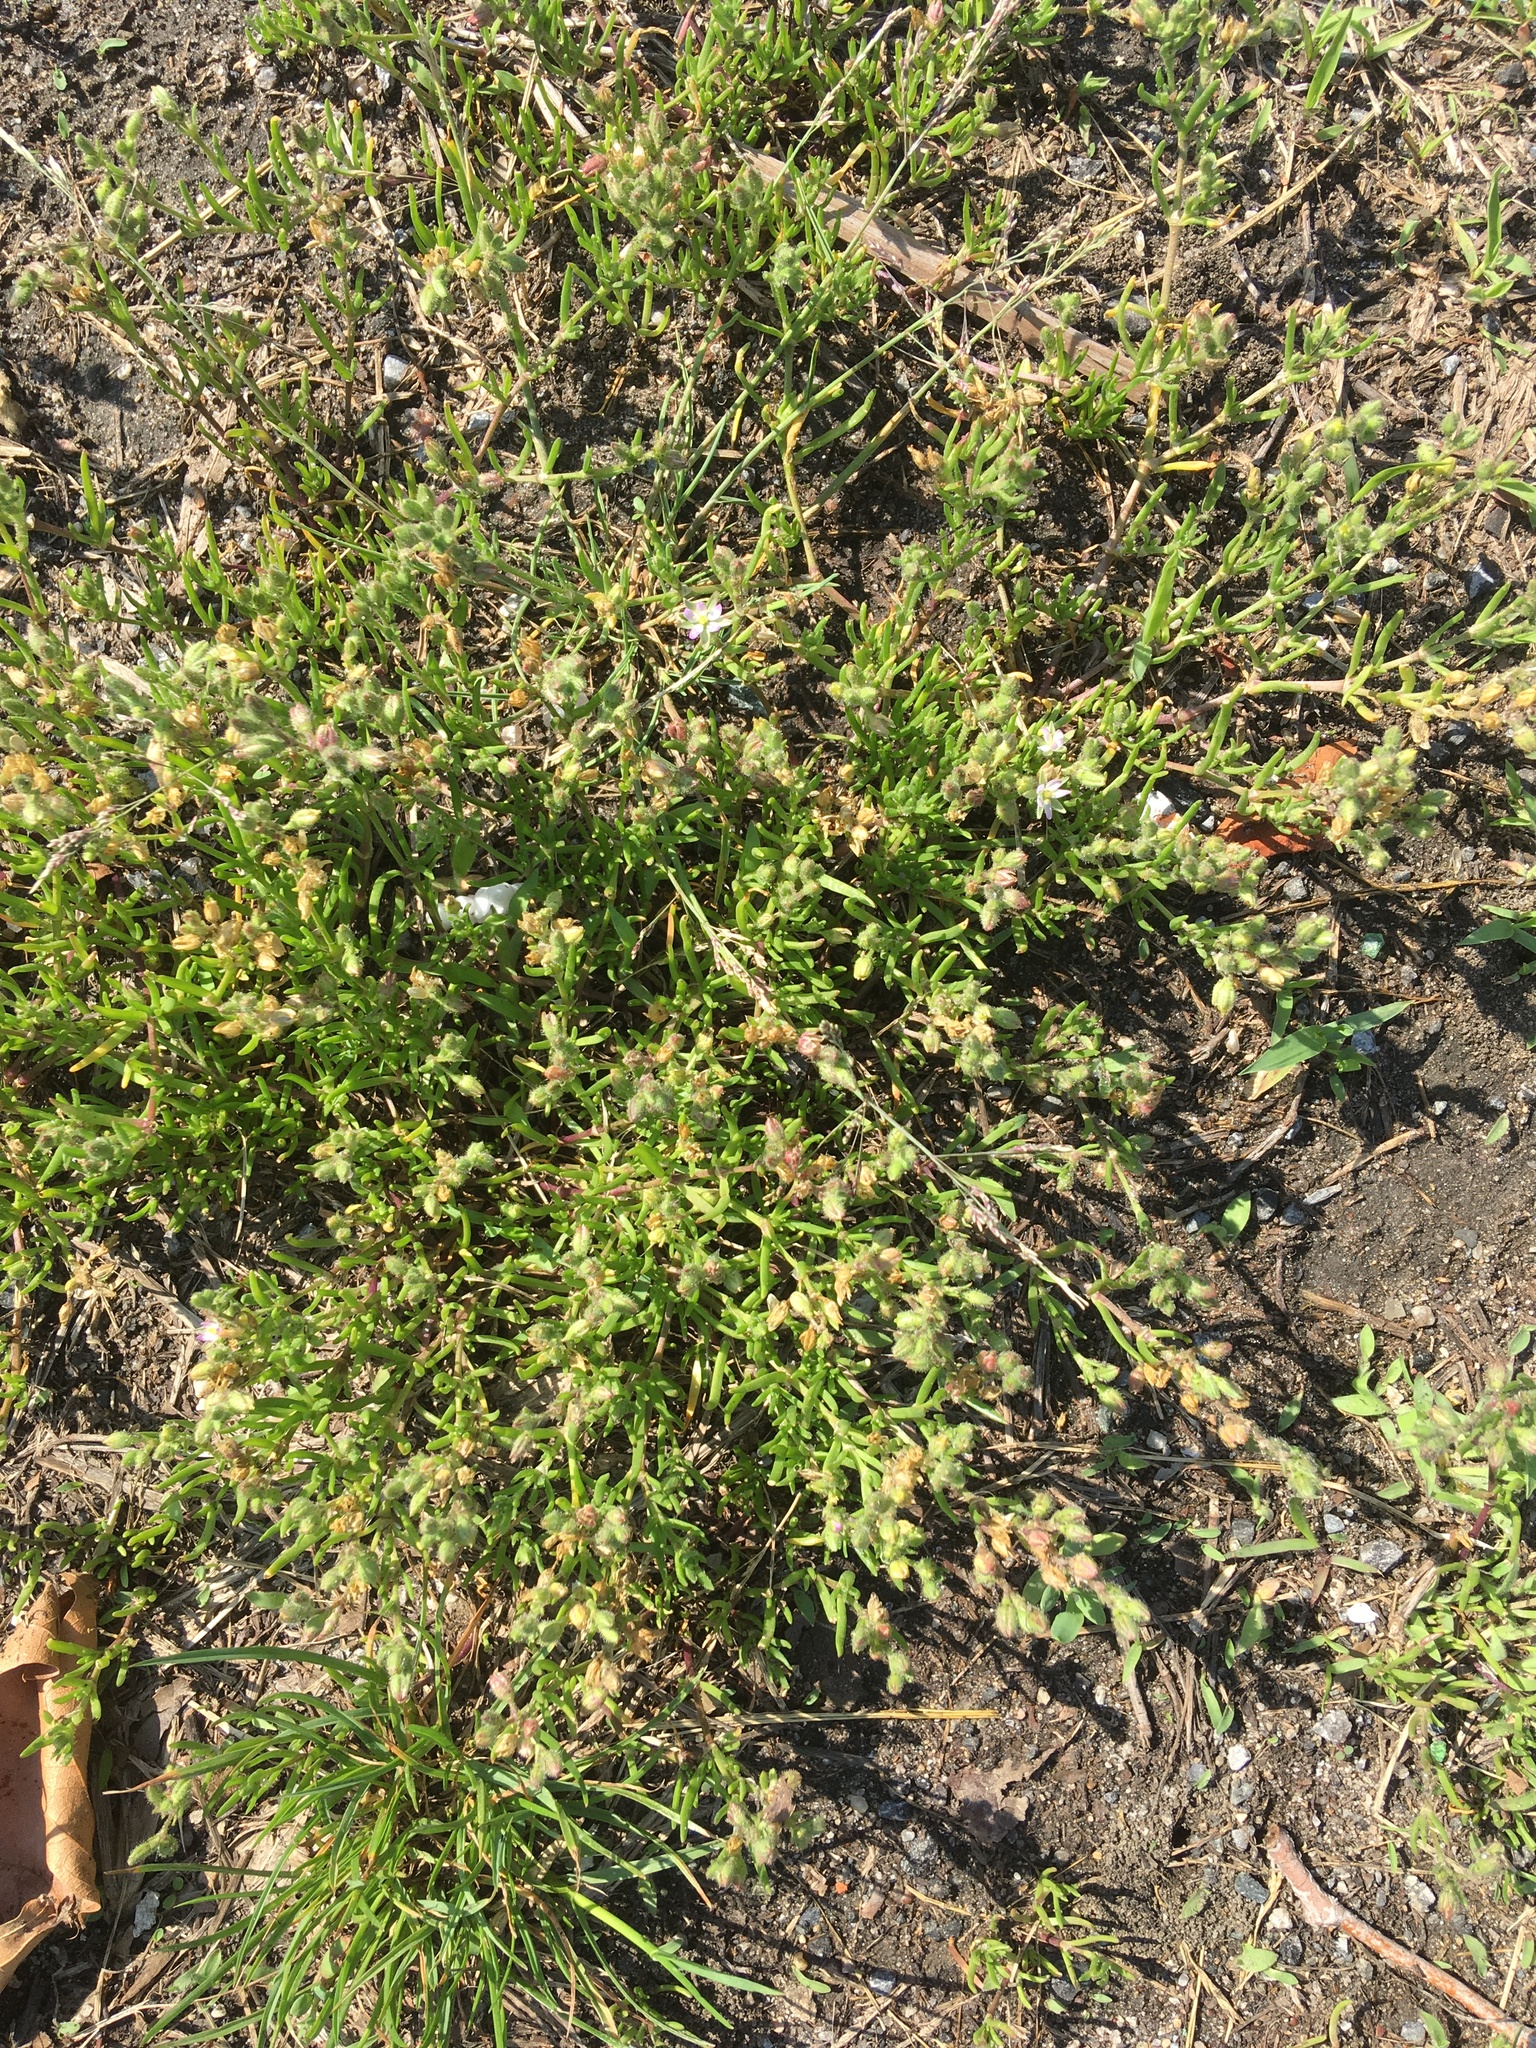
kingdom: Plantae
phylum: Tracheophyta
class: Magnoliopsida
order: Caryophyllales
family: Caryophyllaceae
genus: Spergularia
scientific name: Spergularia marina
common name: Lesser sea-spurrey
